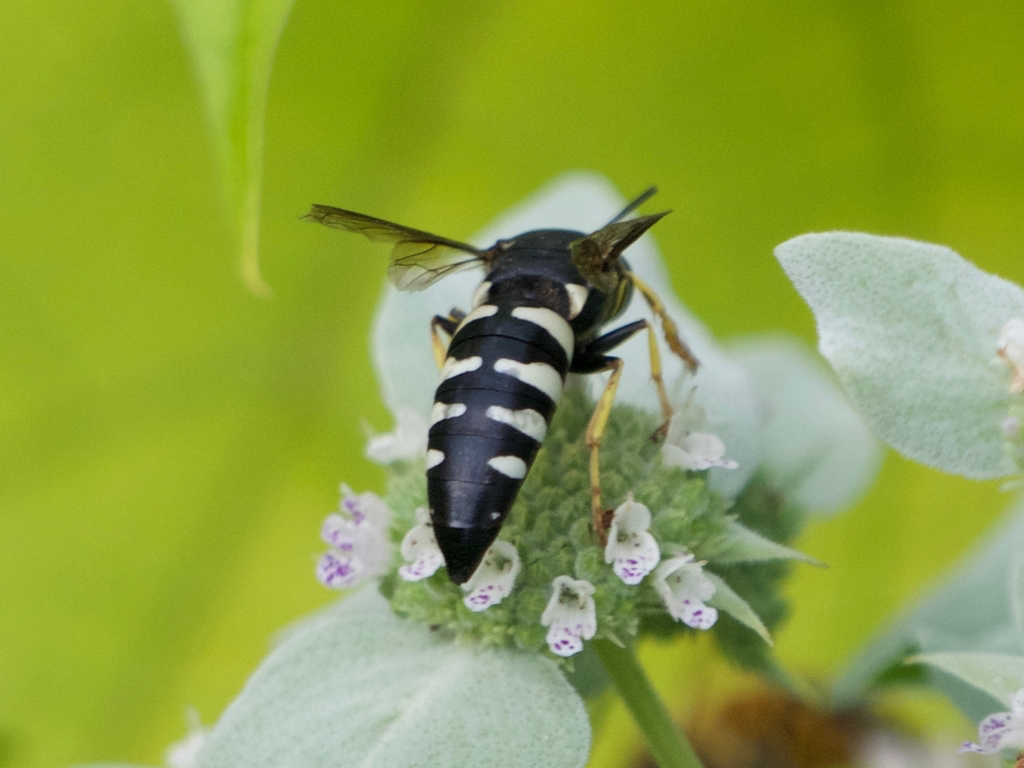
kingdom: Animalia
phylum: Arthropoda
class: Insecta
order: Hymenoptera
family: Crabronidae
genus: Bicyrtes
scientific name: Bicyrtes quadrifasciatus
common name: Four-banded stink bug hunter wasp
